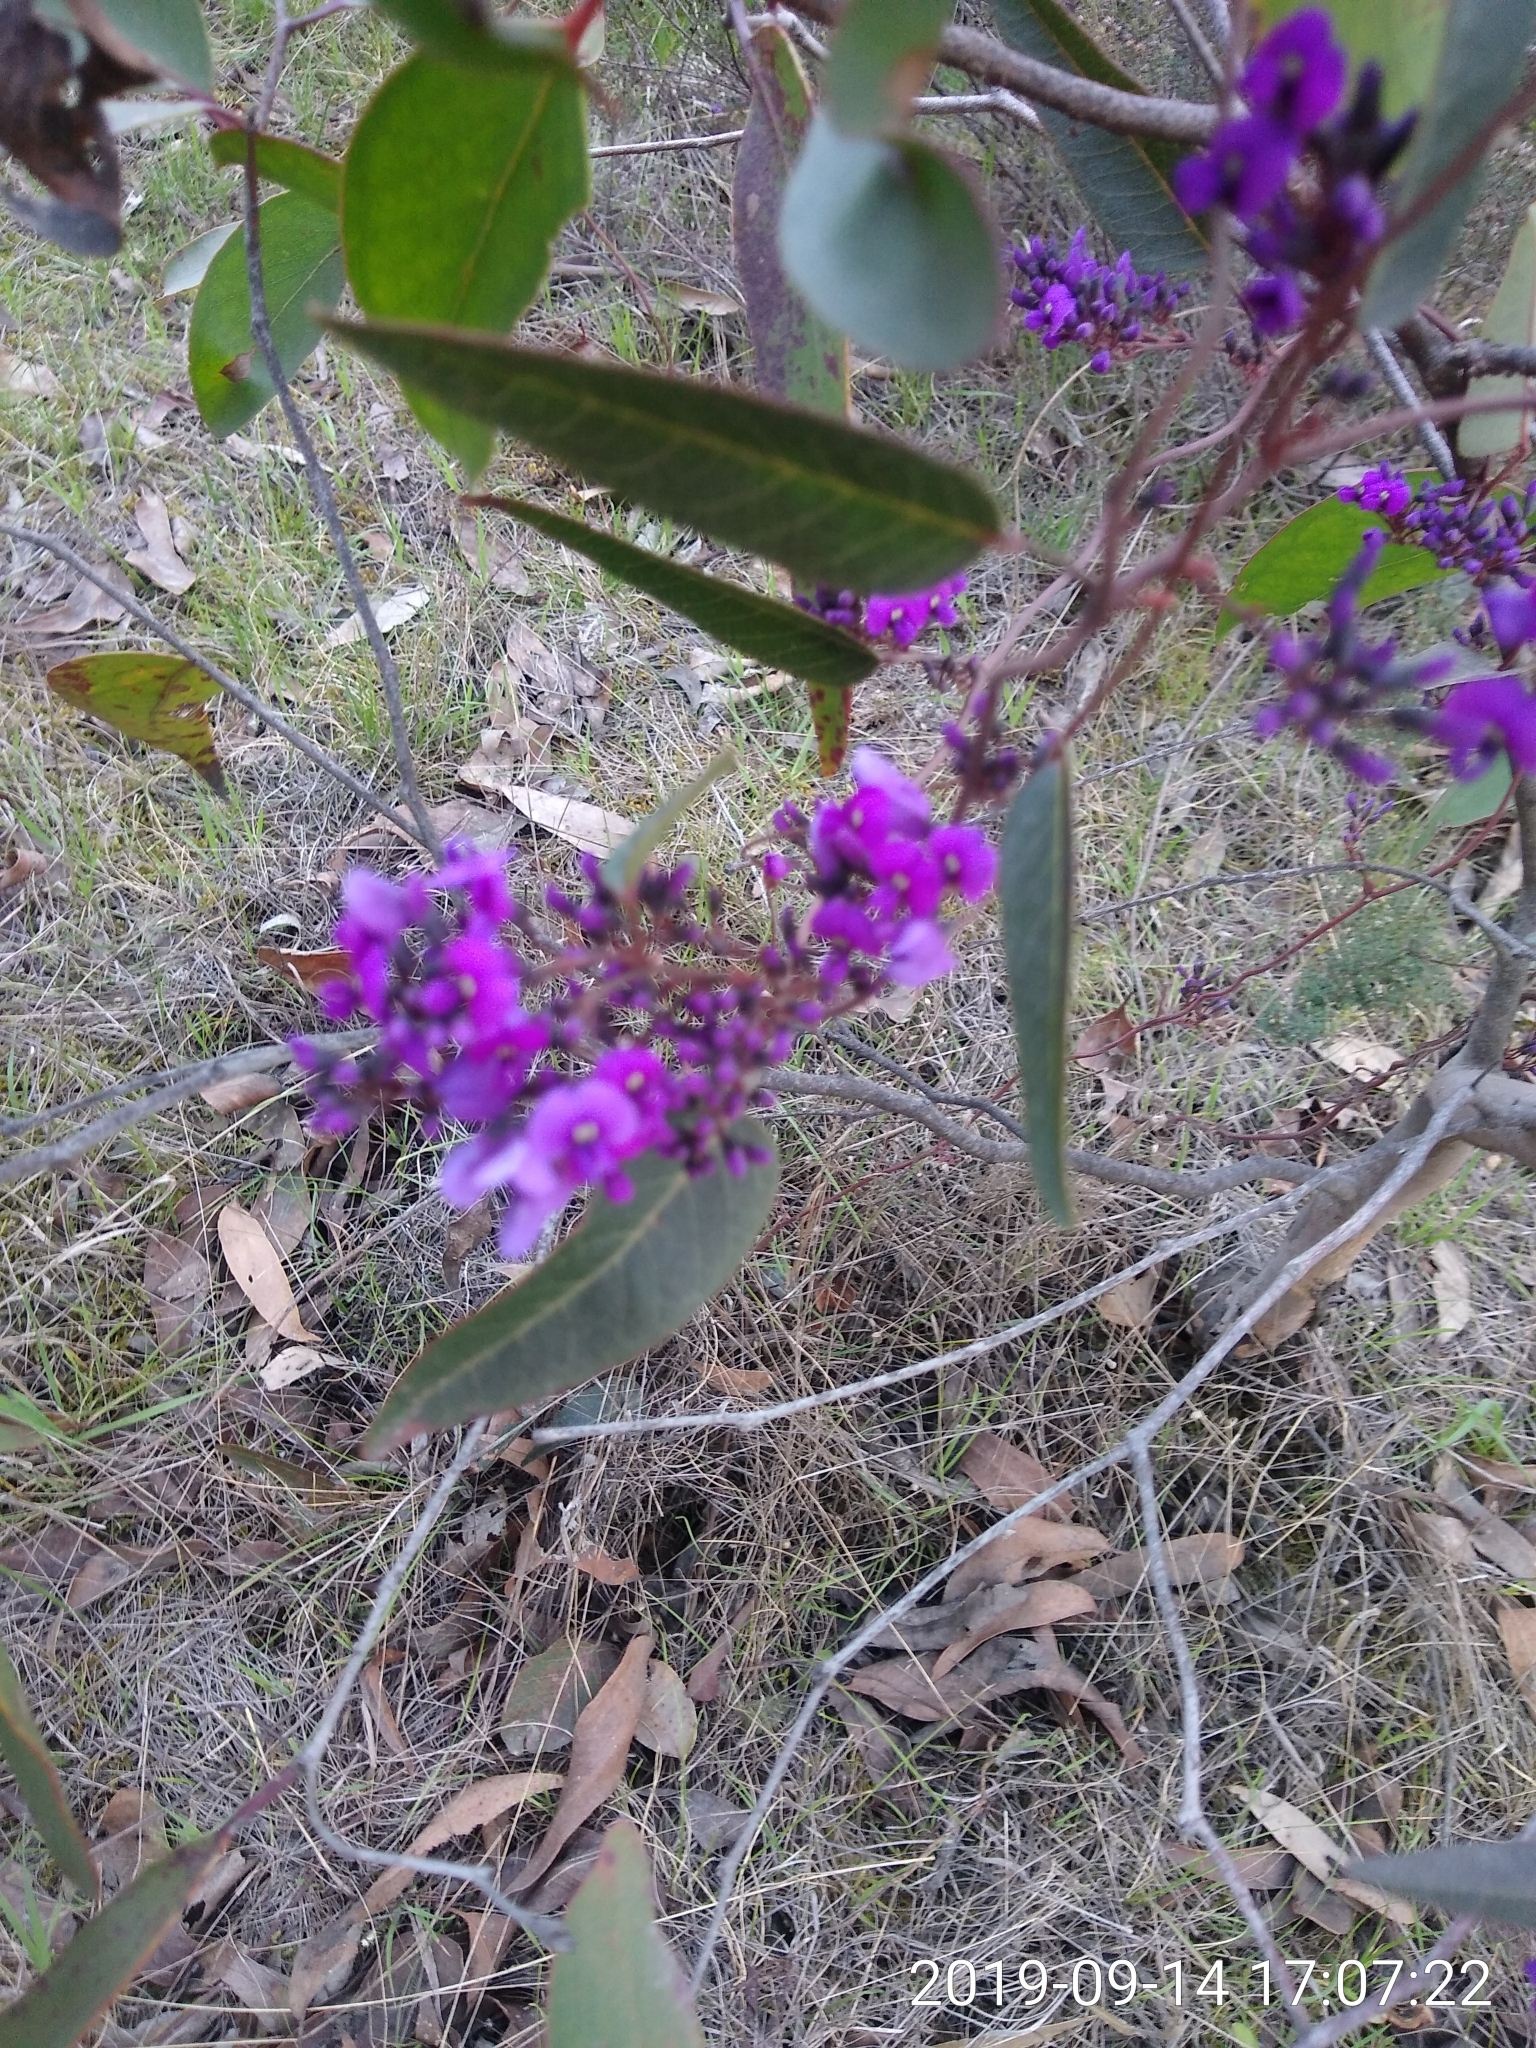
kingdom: Plantae
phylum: Tracheophyta
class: Magnoliopsida
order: Fabales
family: Fabaceae
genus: Hardenbergia
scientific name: Hardenbergia violacea
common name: Coral-pea
